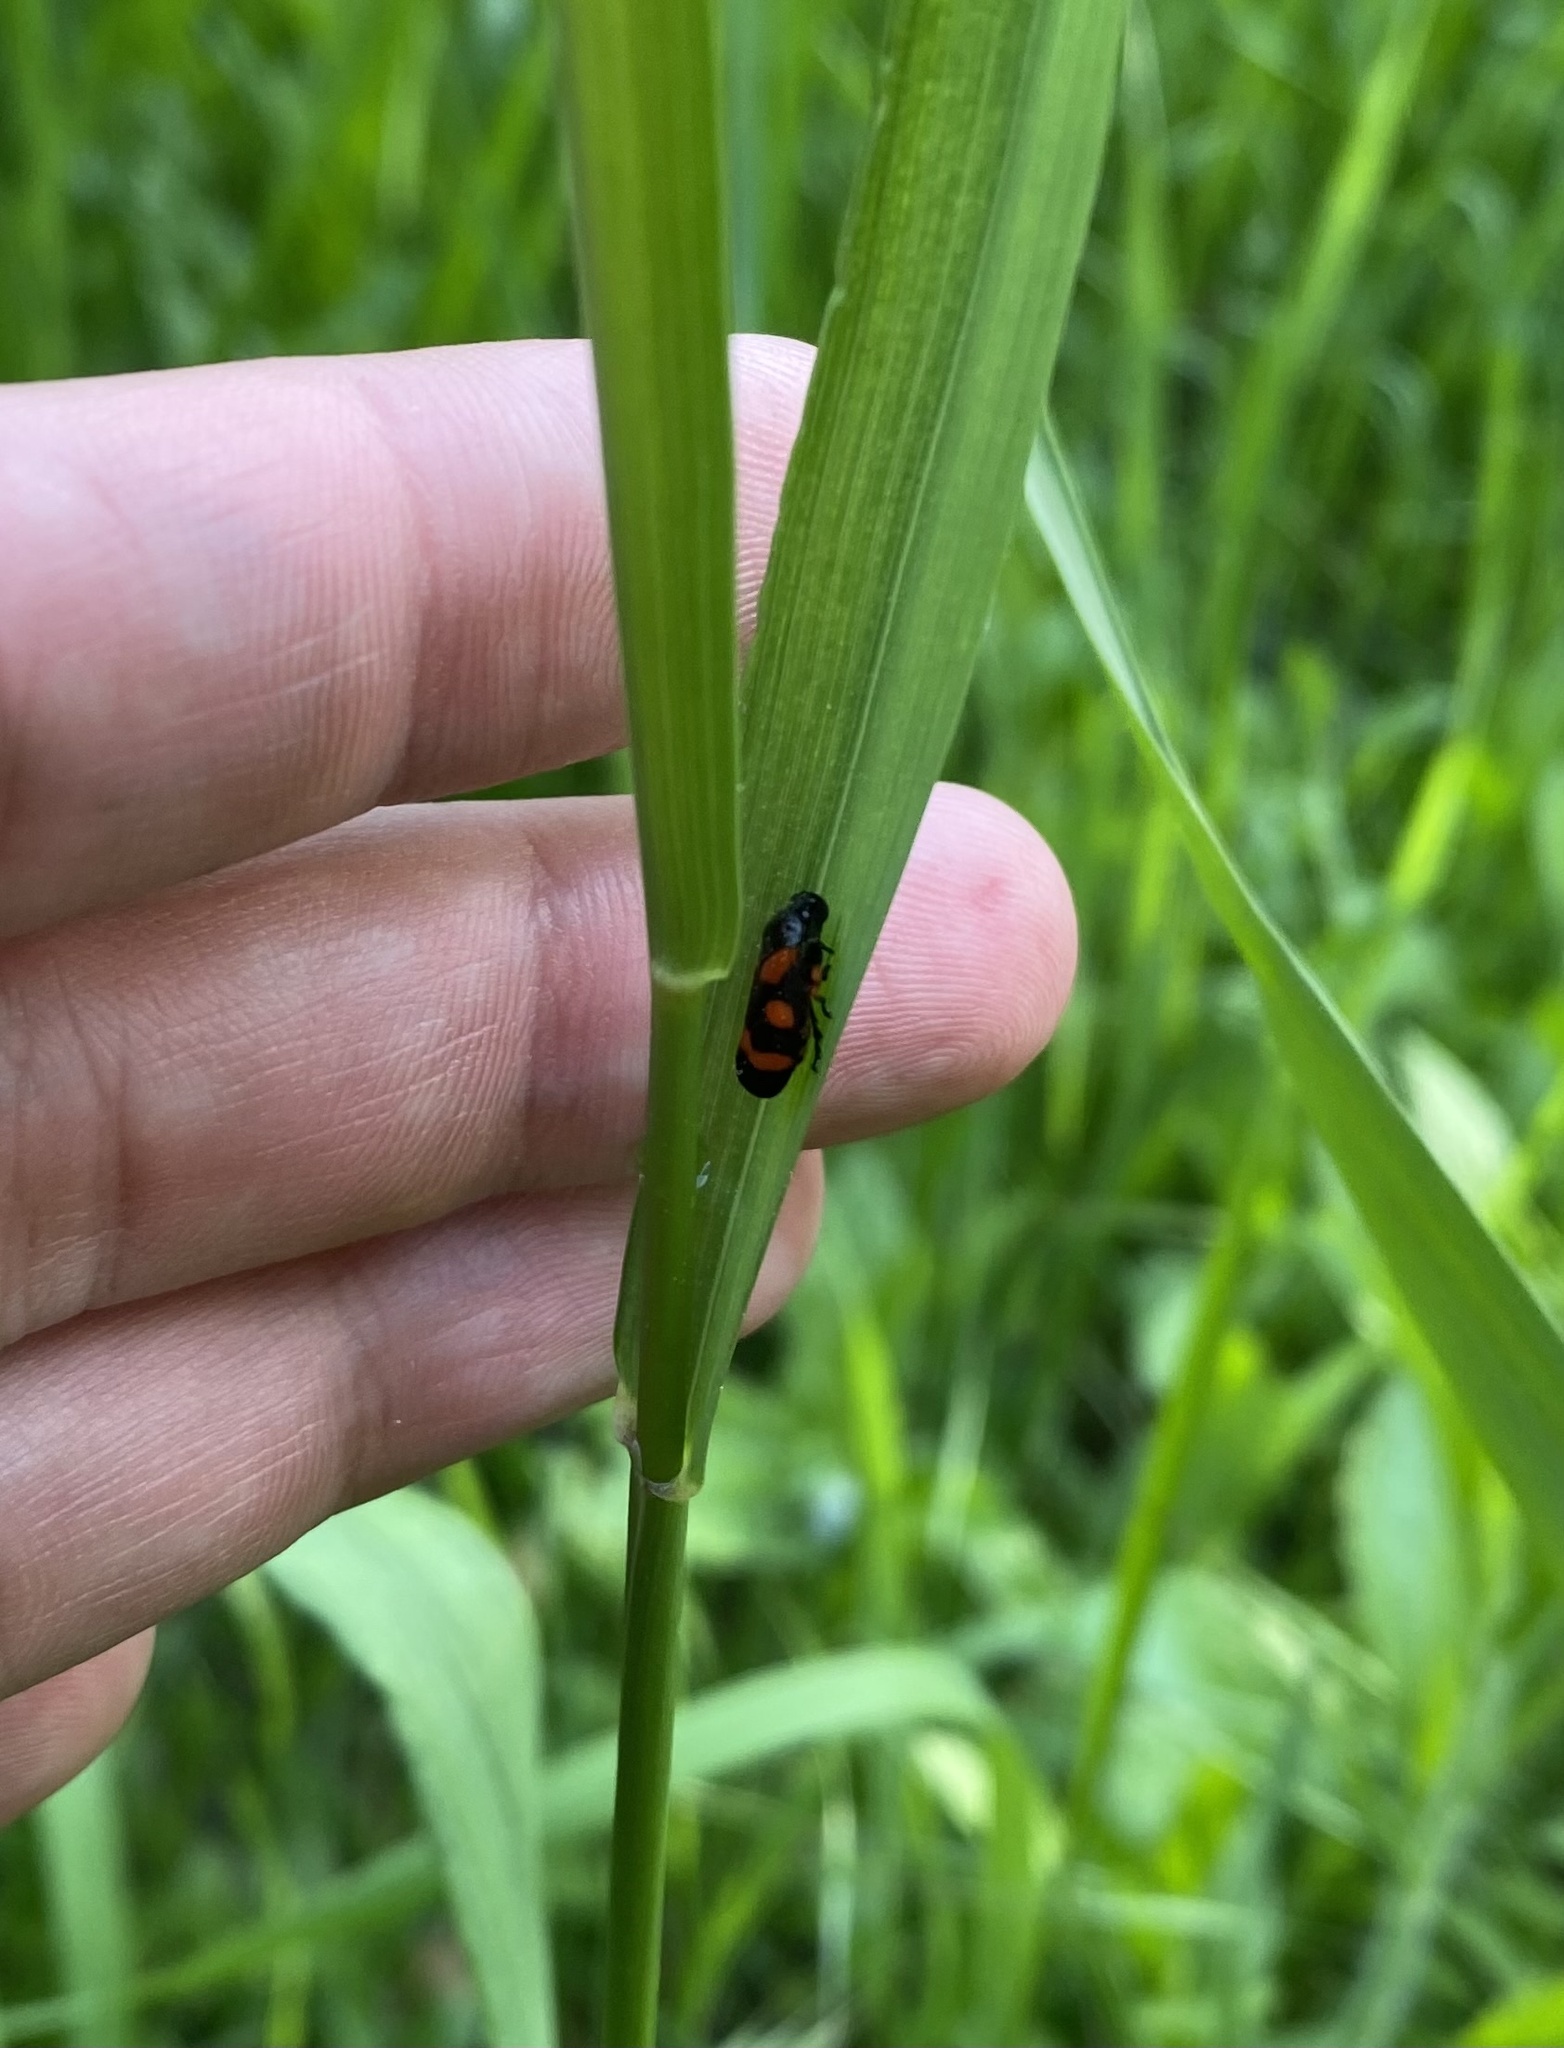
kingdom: Animalia
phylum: Arthropoda
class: Insecta
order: Hemiptera
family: Cercopidae
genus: Cercopis
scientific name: Cercopis intermedia
